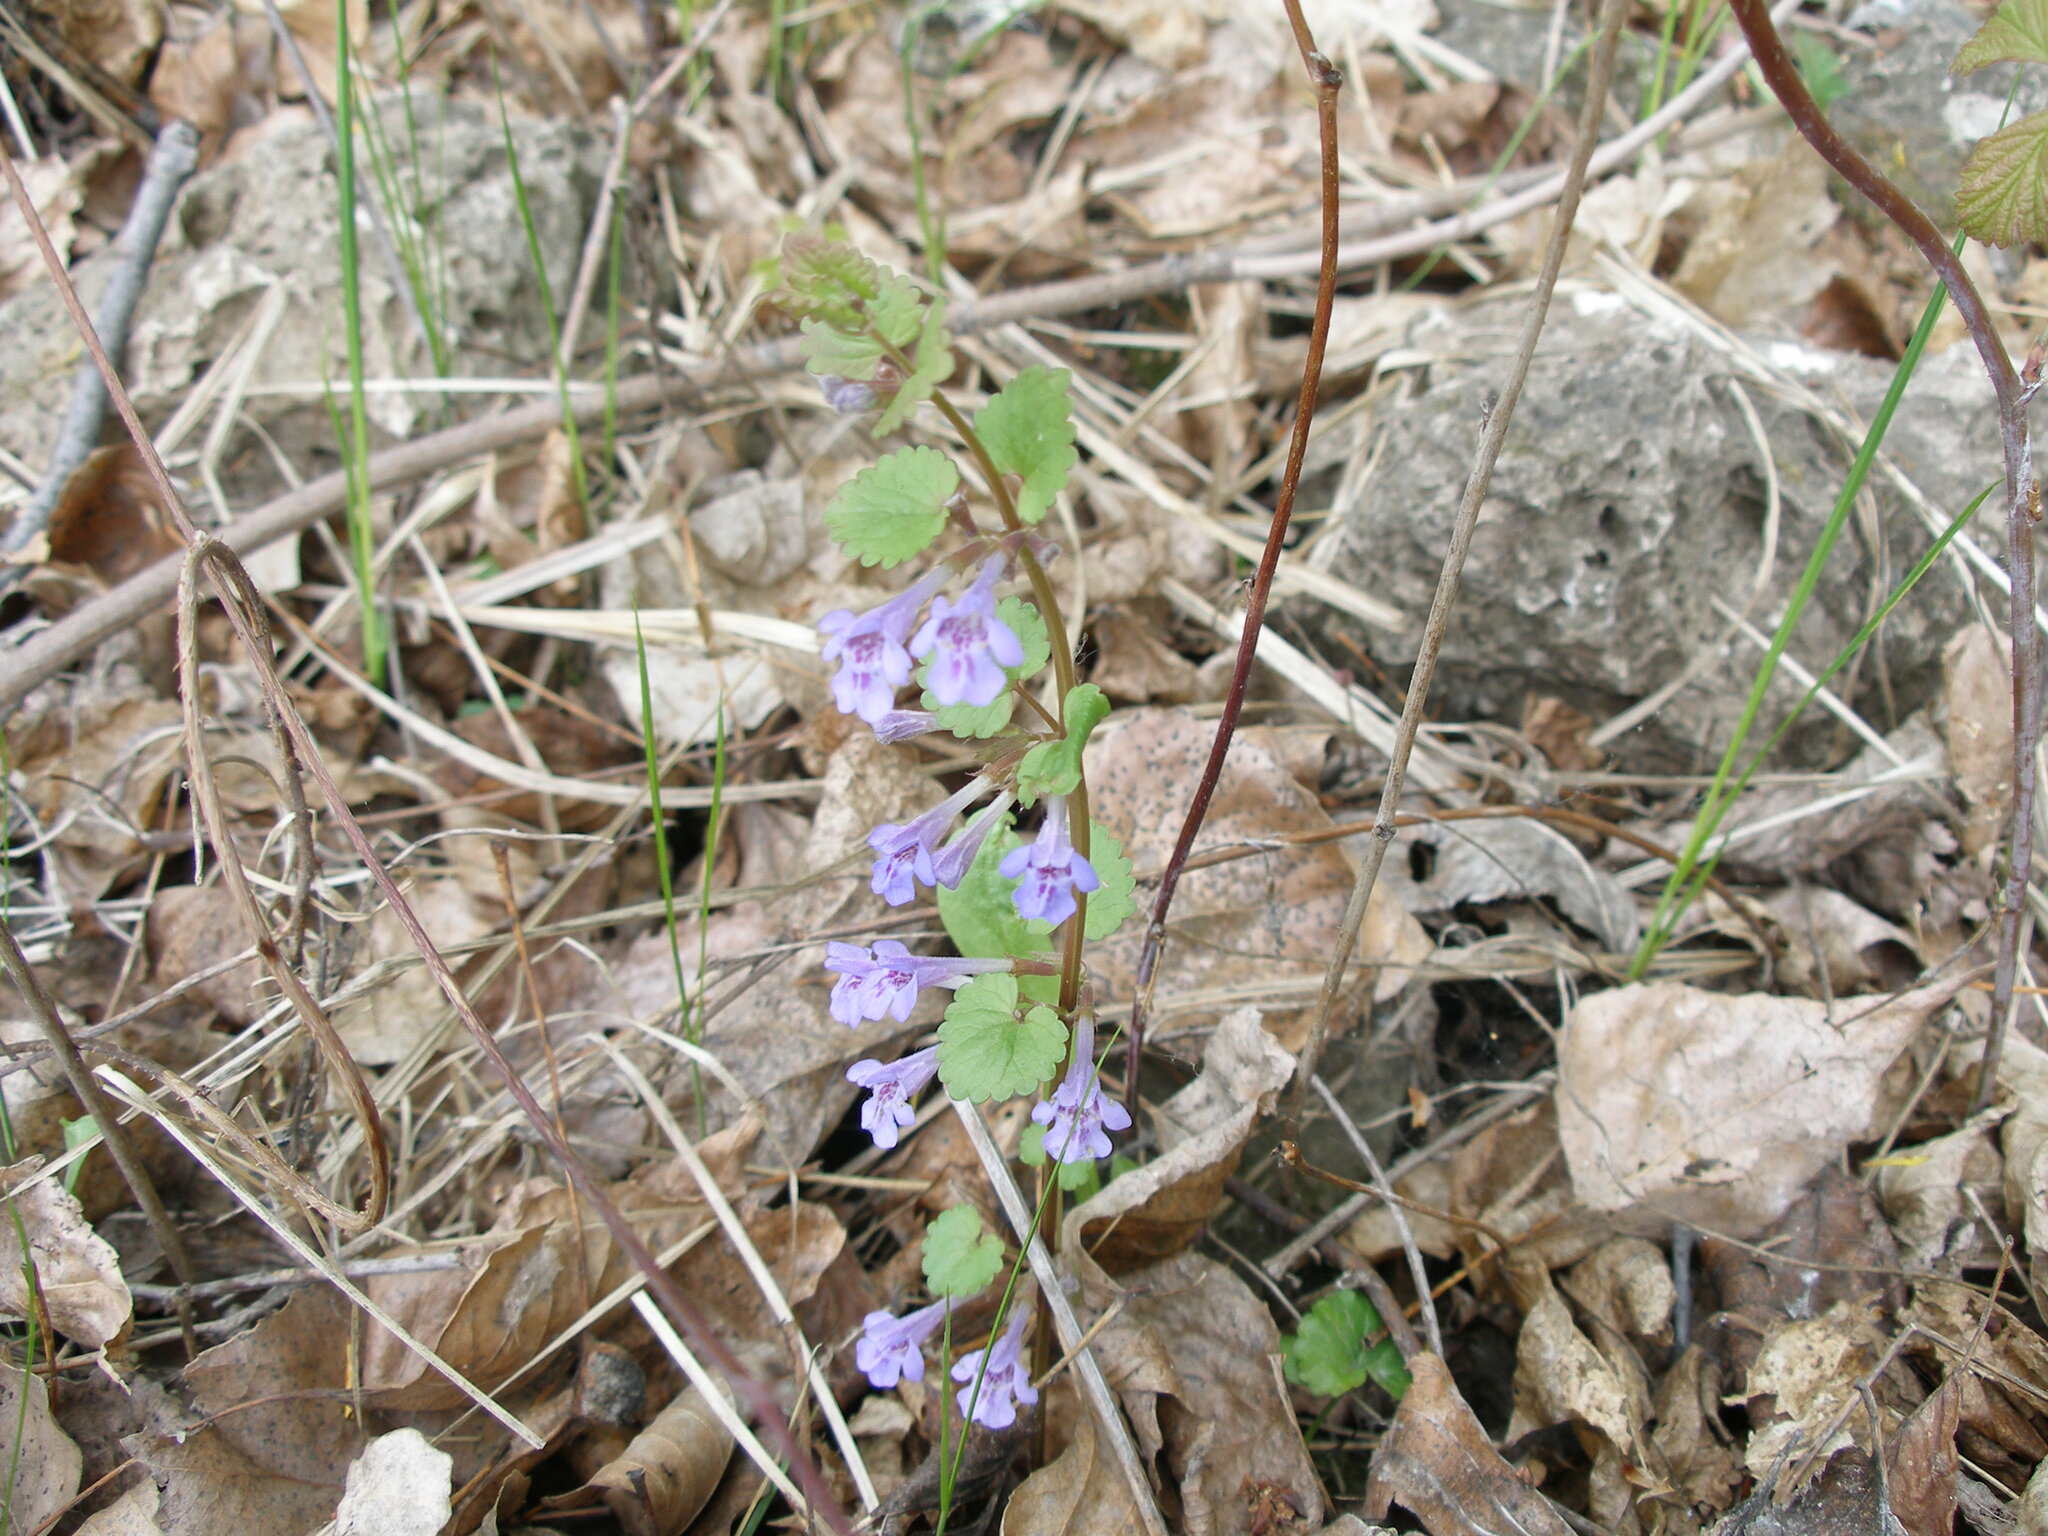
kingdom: Plantae
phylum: Tracheophyta
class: Magnoliopsida
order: Lamiales
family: Lamiaceae
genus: Glechoma
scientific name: Glechoma hederacea
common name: Ground ivy
